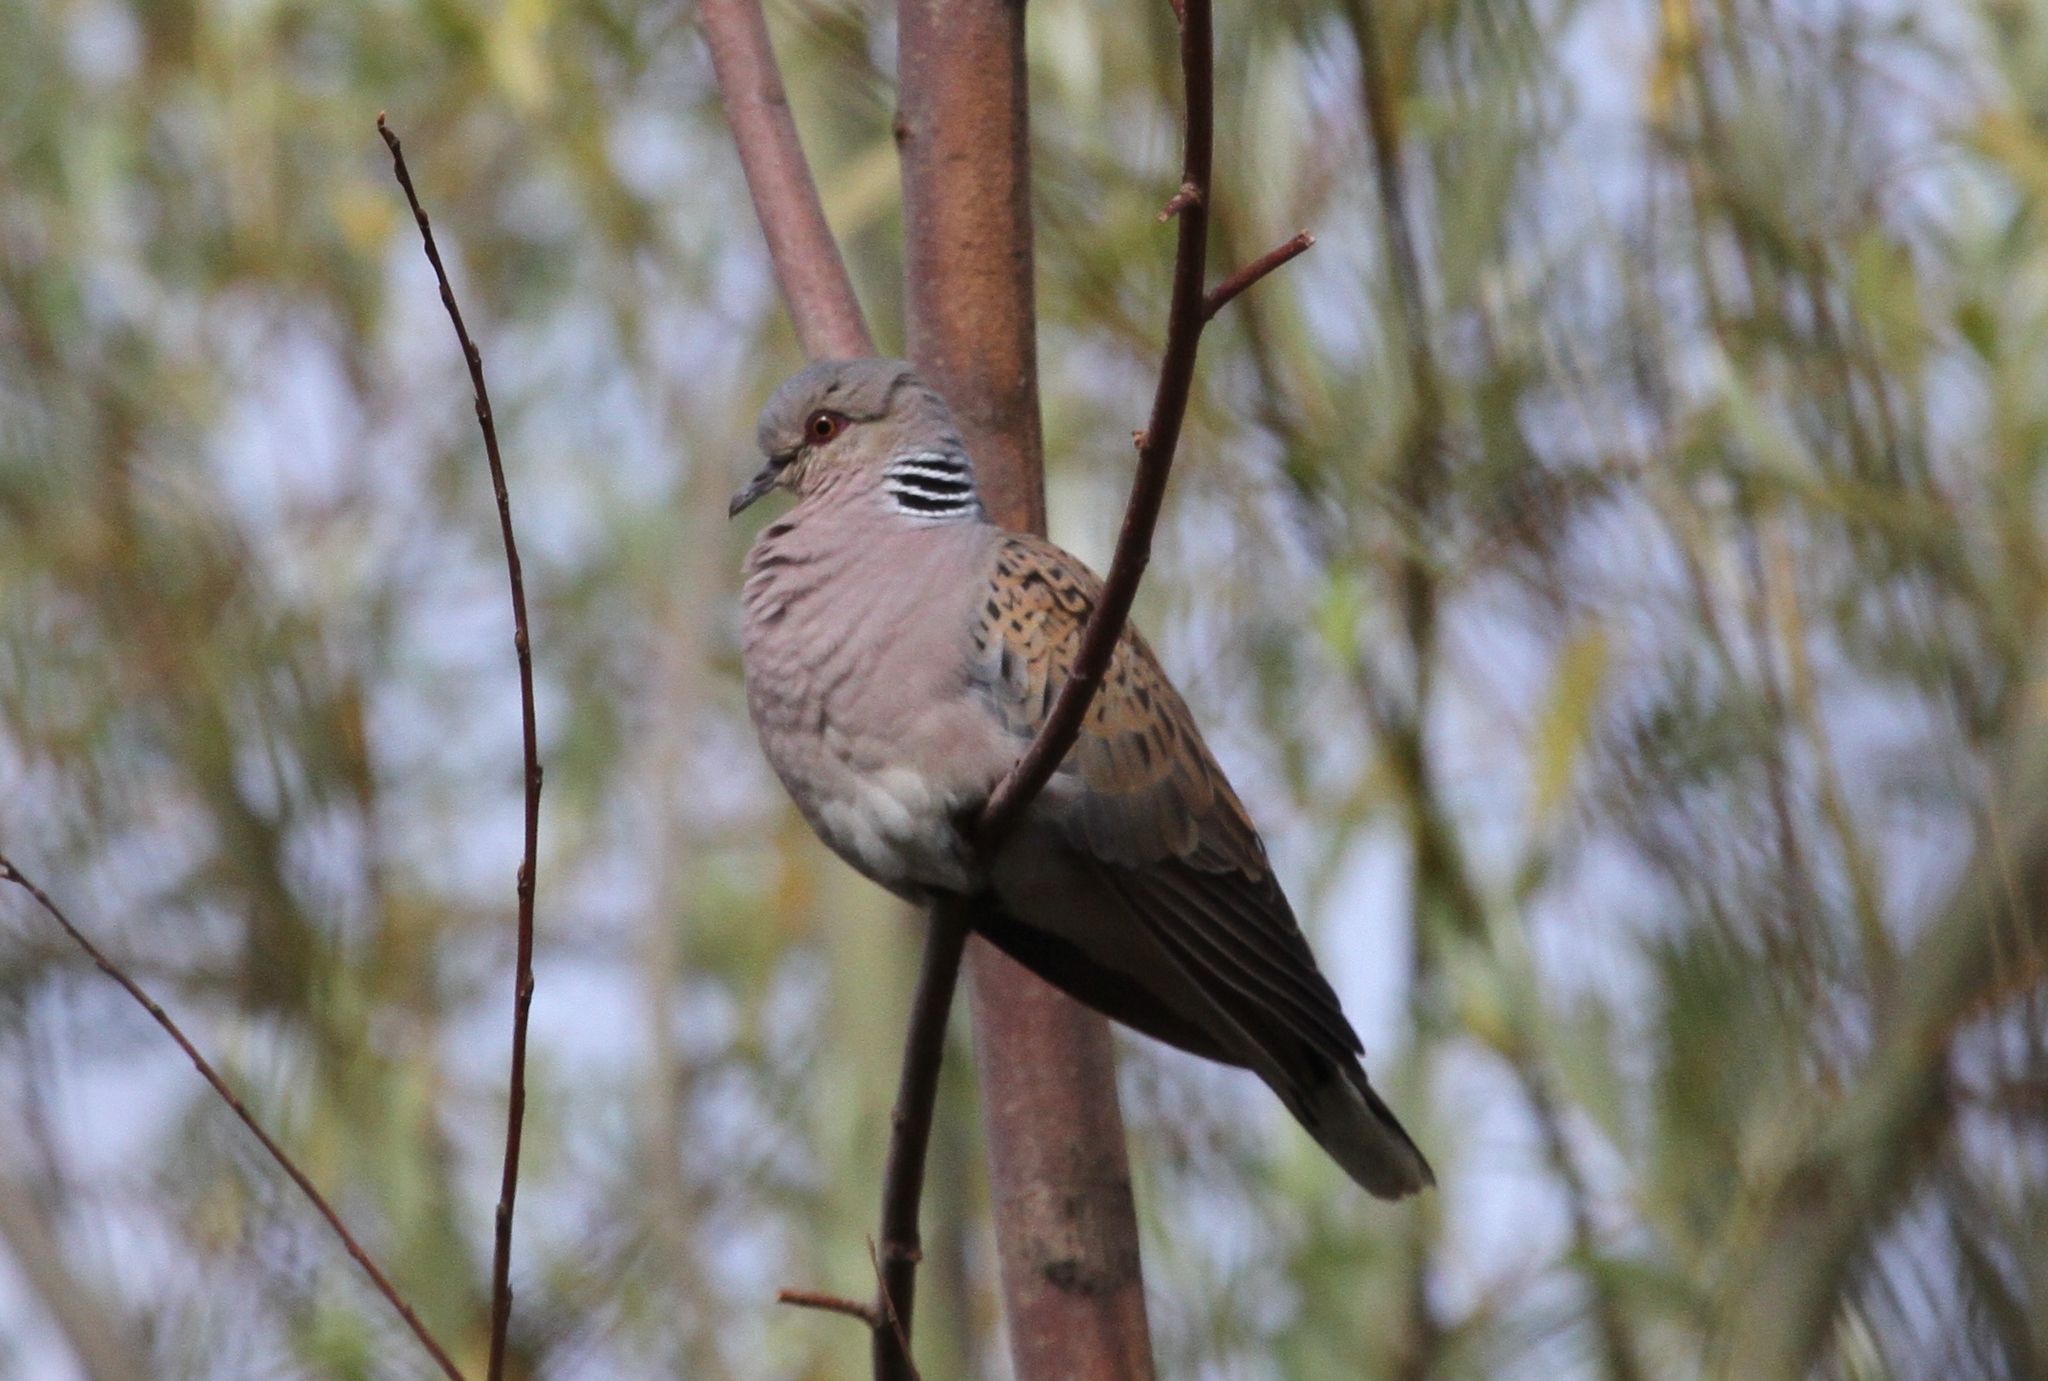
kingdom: Animalia
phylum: Chordata
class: Aves
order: Columbiformes
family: Columbidae
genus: Streptopelia
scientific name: Streptopelia turtur
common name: European turtle dove
